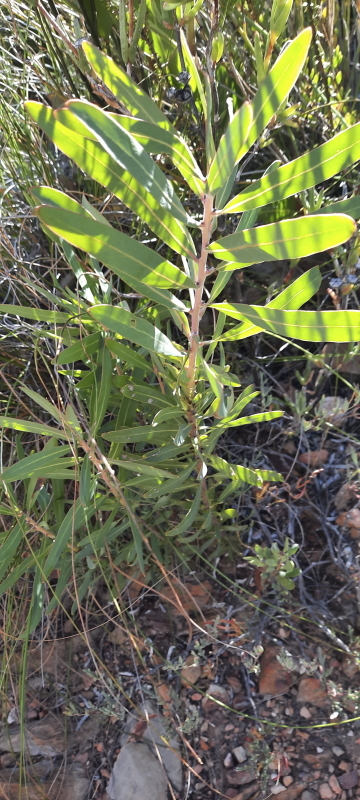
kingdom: Plantae
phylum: Tracheophyta
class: Magnoliopsida
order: Proteales
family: Proteaceae
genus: Protea
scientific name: Protea neriifolia
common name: Blue sugarbush
